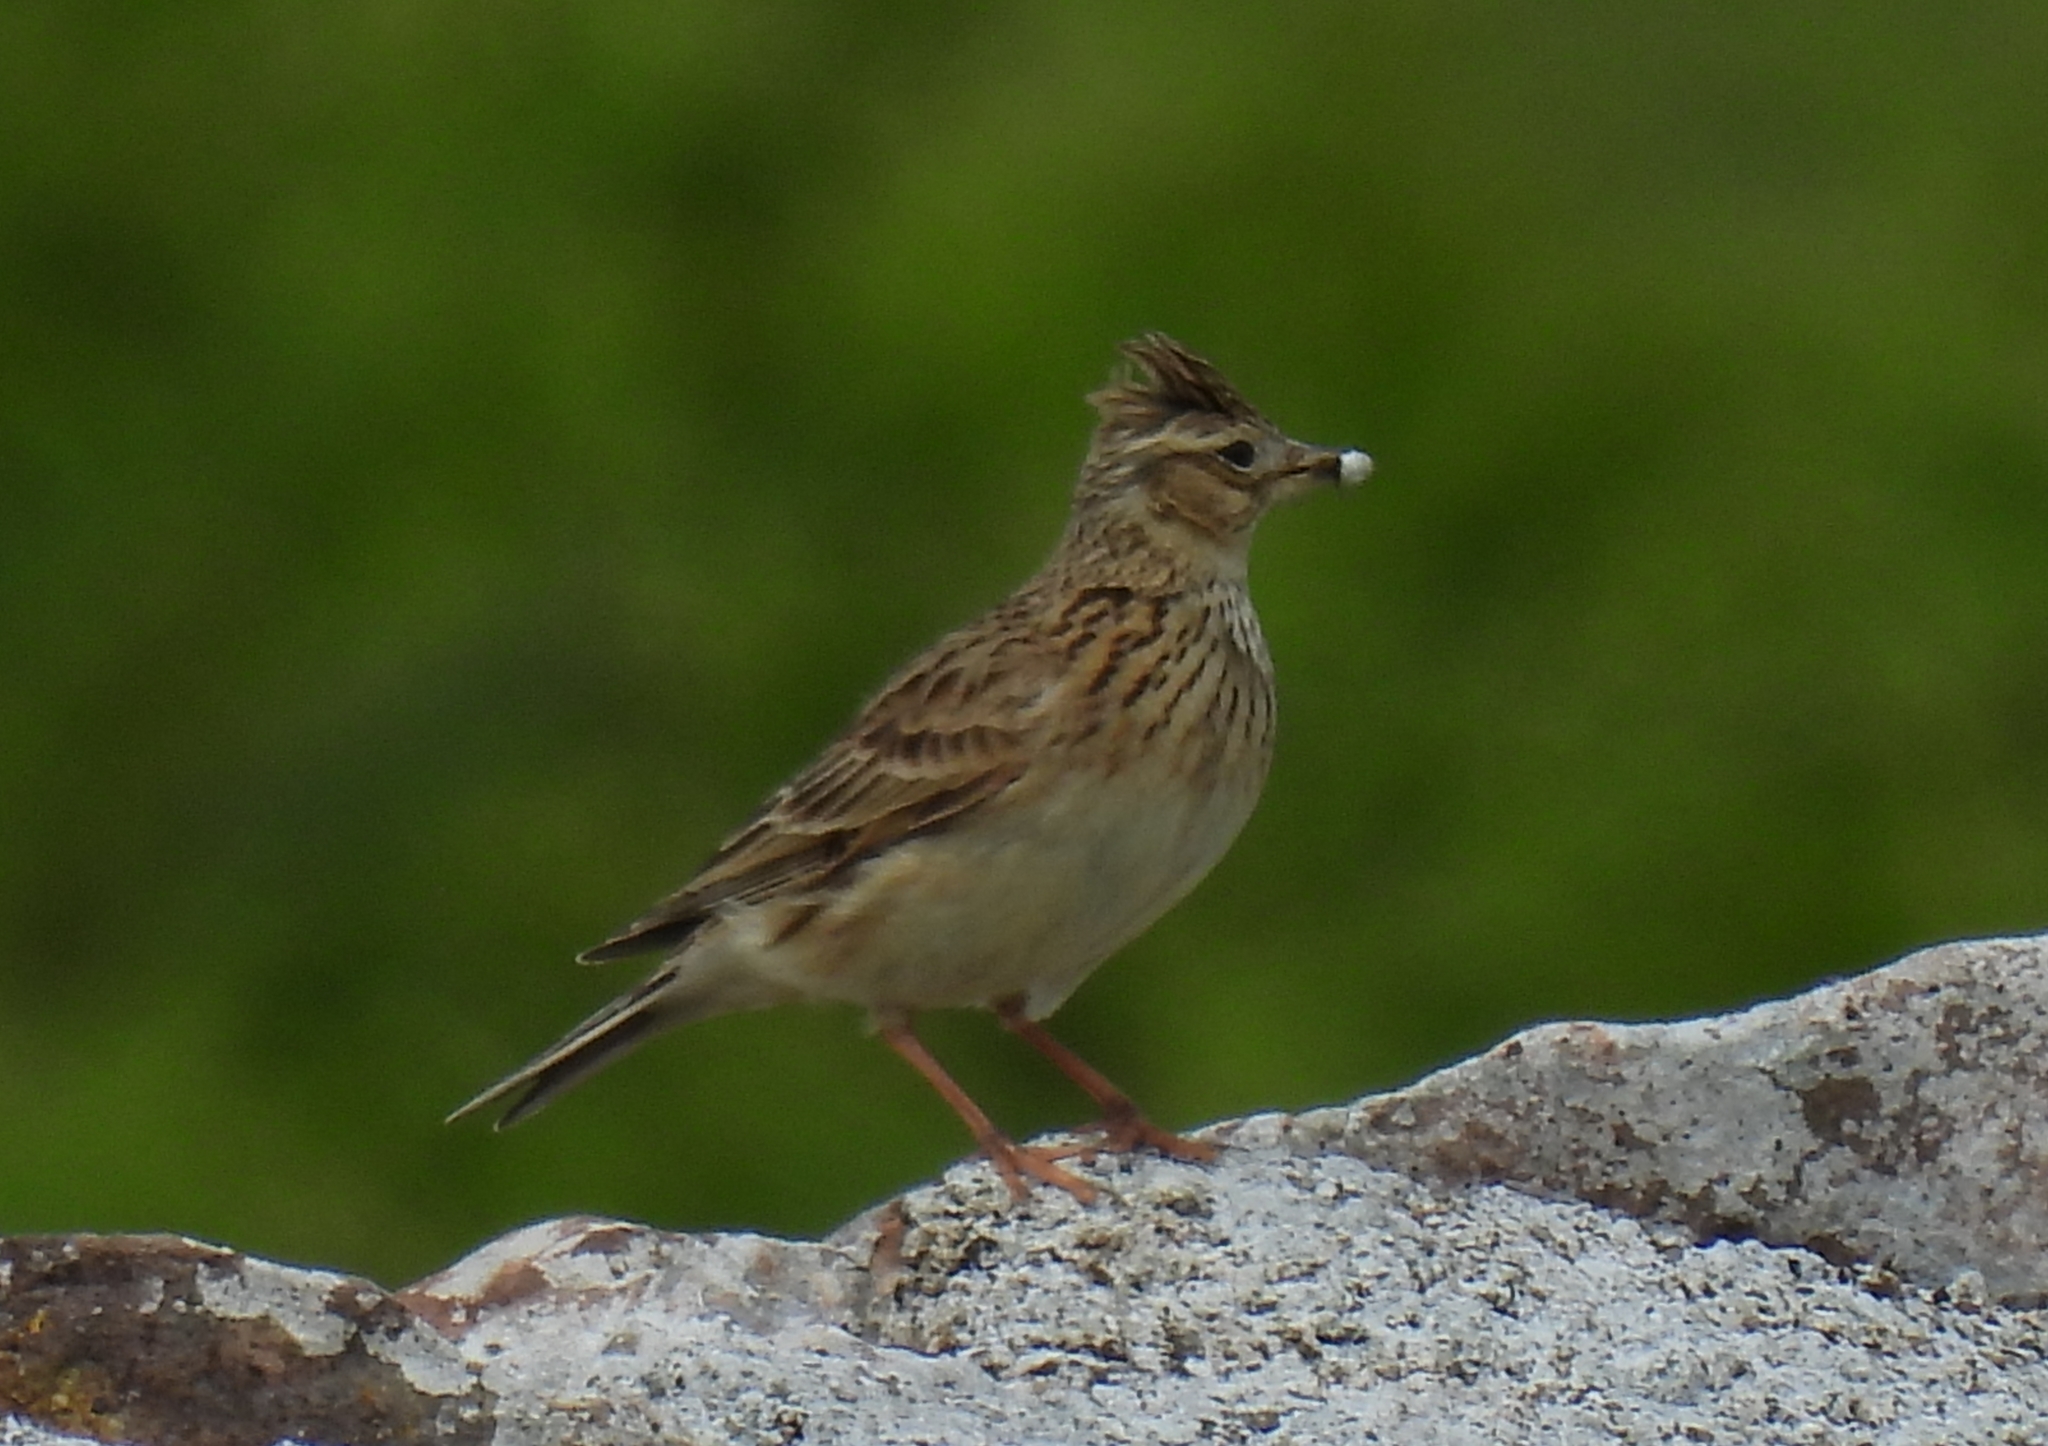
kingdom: Animalia
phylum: Chordata
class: Aves
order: Passeriformes
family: Alaudidae
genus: Alauda
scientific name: Alauda arvensis
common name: Eurasian skylark
